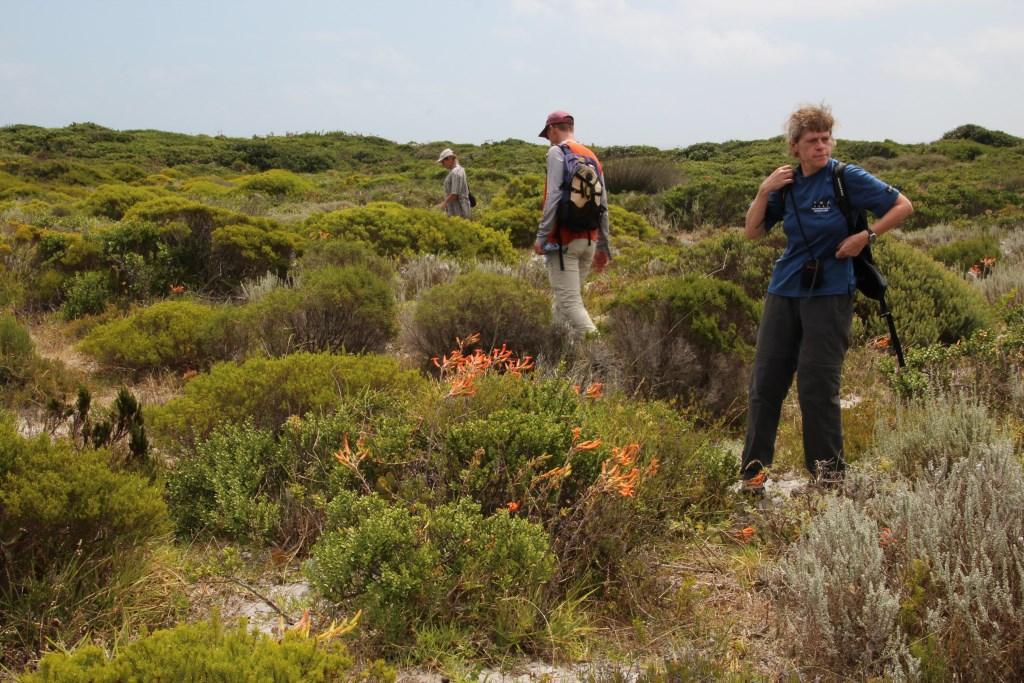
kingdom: Plantae
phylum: Tracheophyta
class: Magnoliopsida
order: Saxifragales
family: Crassulaceae
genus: Tylecodon
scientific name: Tylecodon grandiflorus
